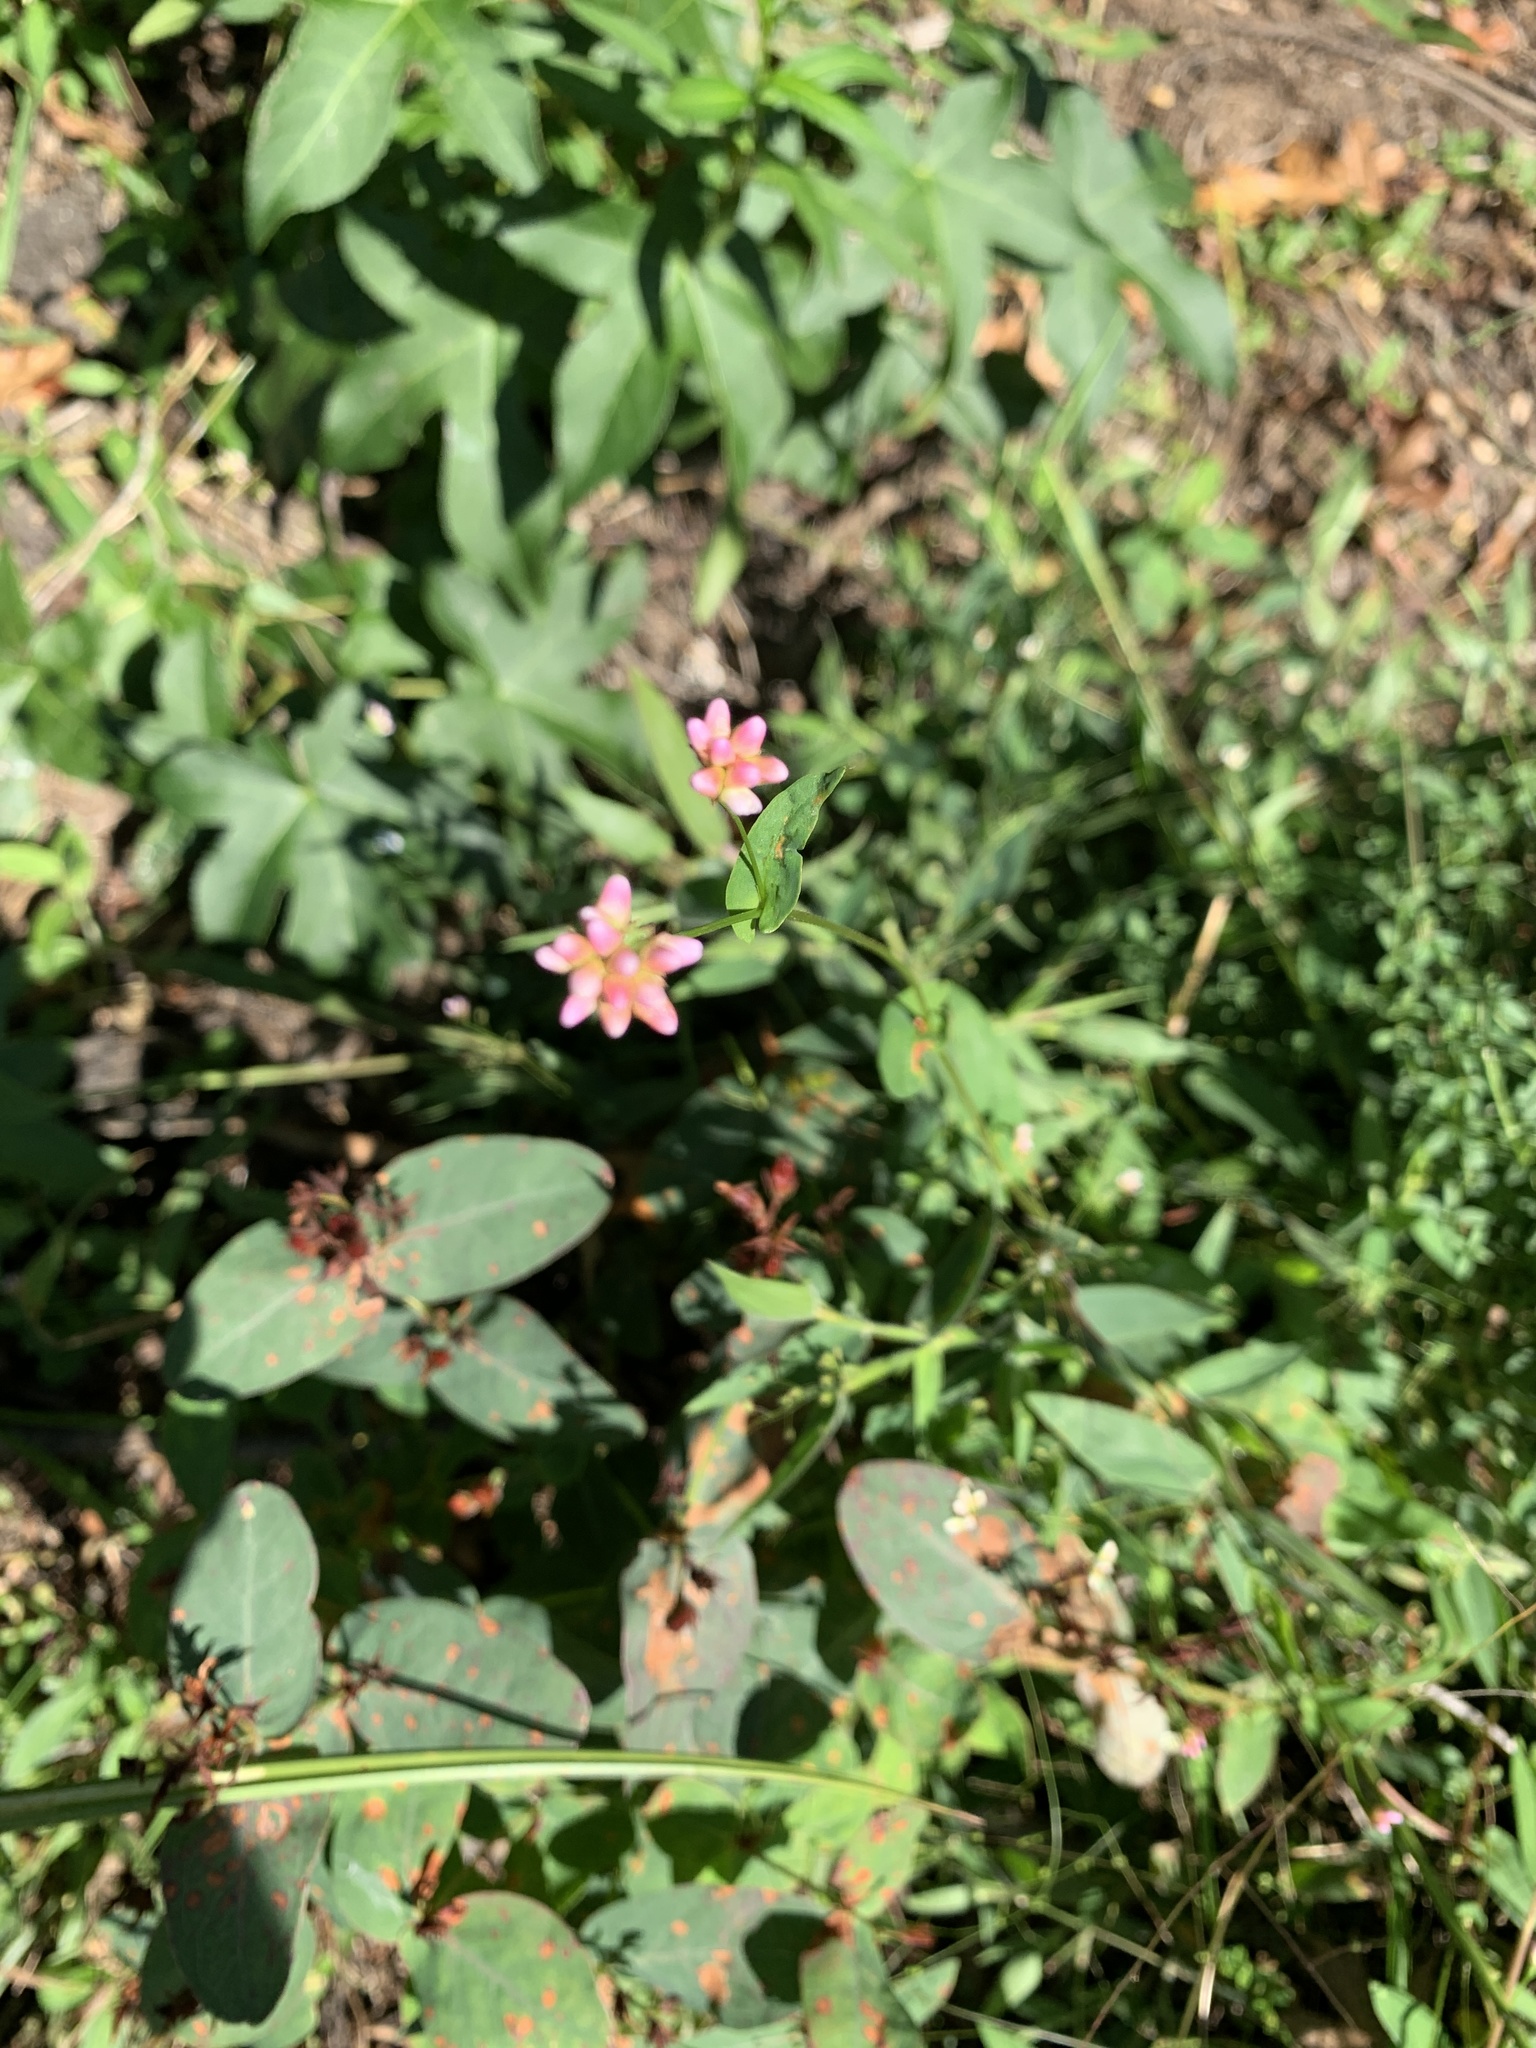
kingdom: Plantae
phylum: Tracheophyta
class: Magnoliopsida
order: Caryophyllales
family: Polygonaceae
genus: Persicaria
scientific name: Persicaria sagittata
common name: American tearthumb
